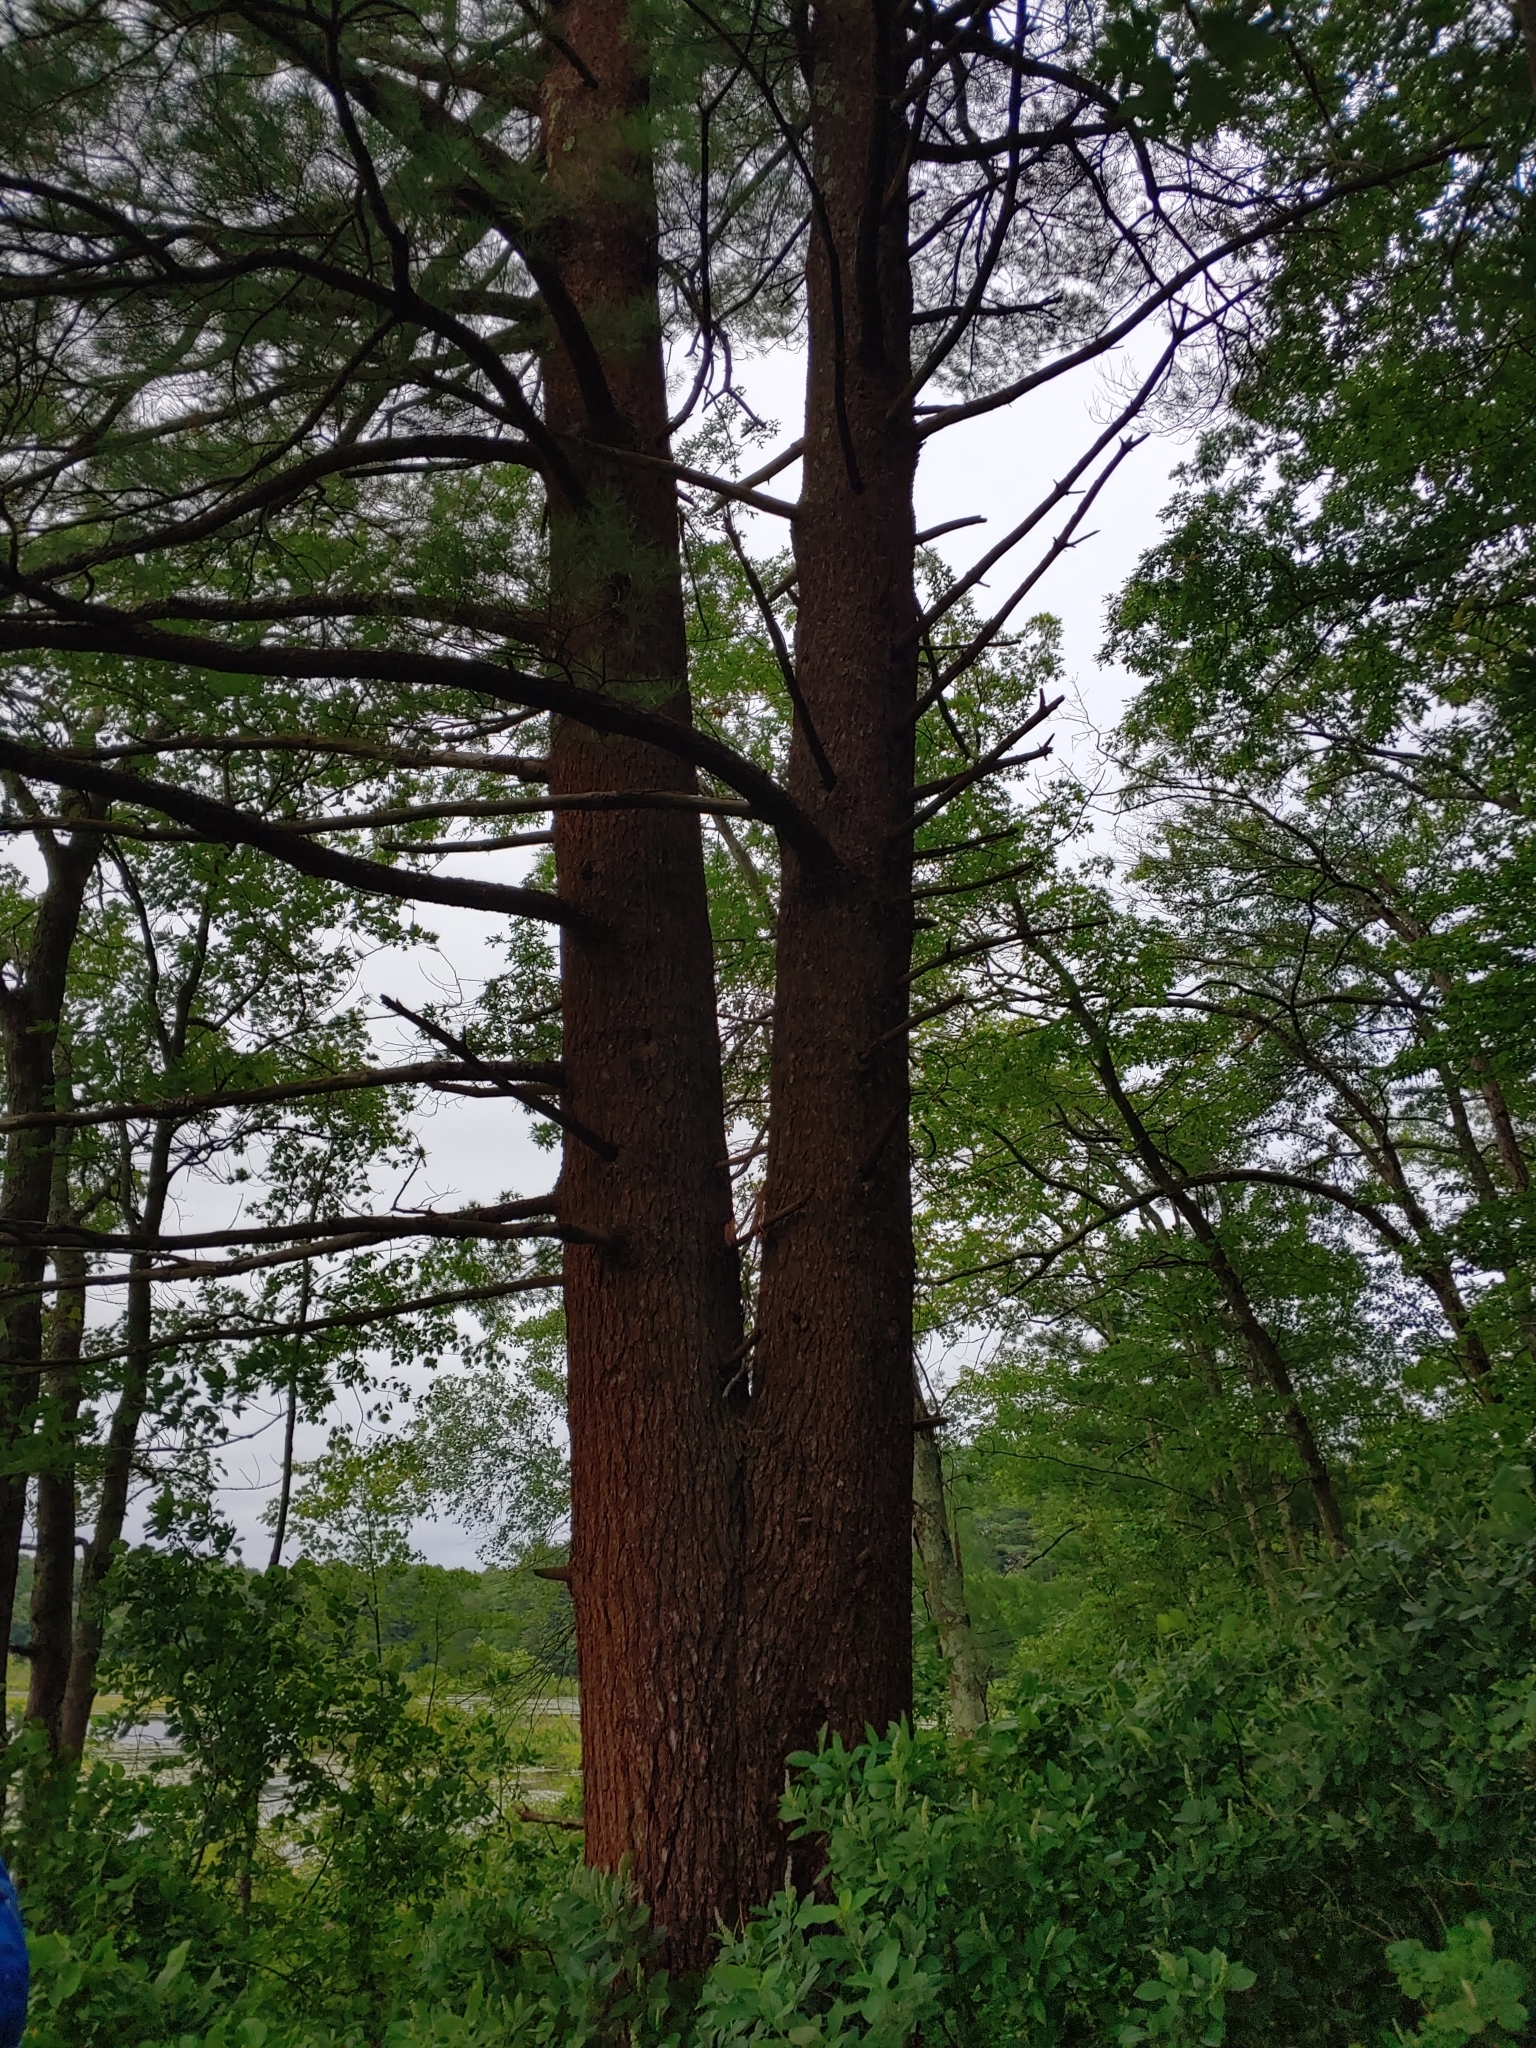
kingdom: Plantae
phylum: Tracheophyta
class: Pinopsida
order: Pinales
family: Pinaceae
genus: Pinus
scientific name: Pinus strobus
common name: Weymouth pine
